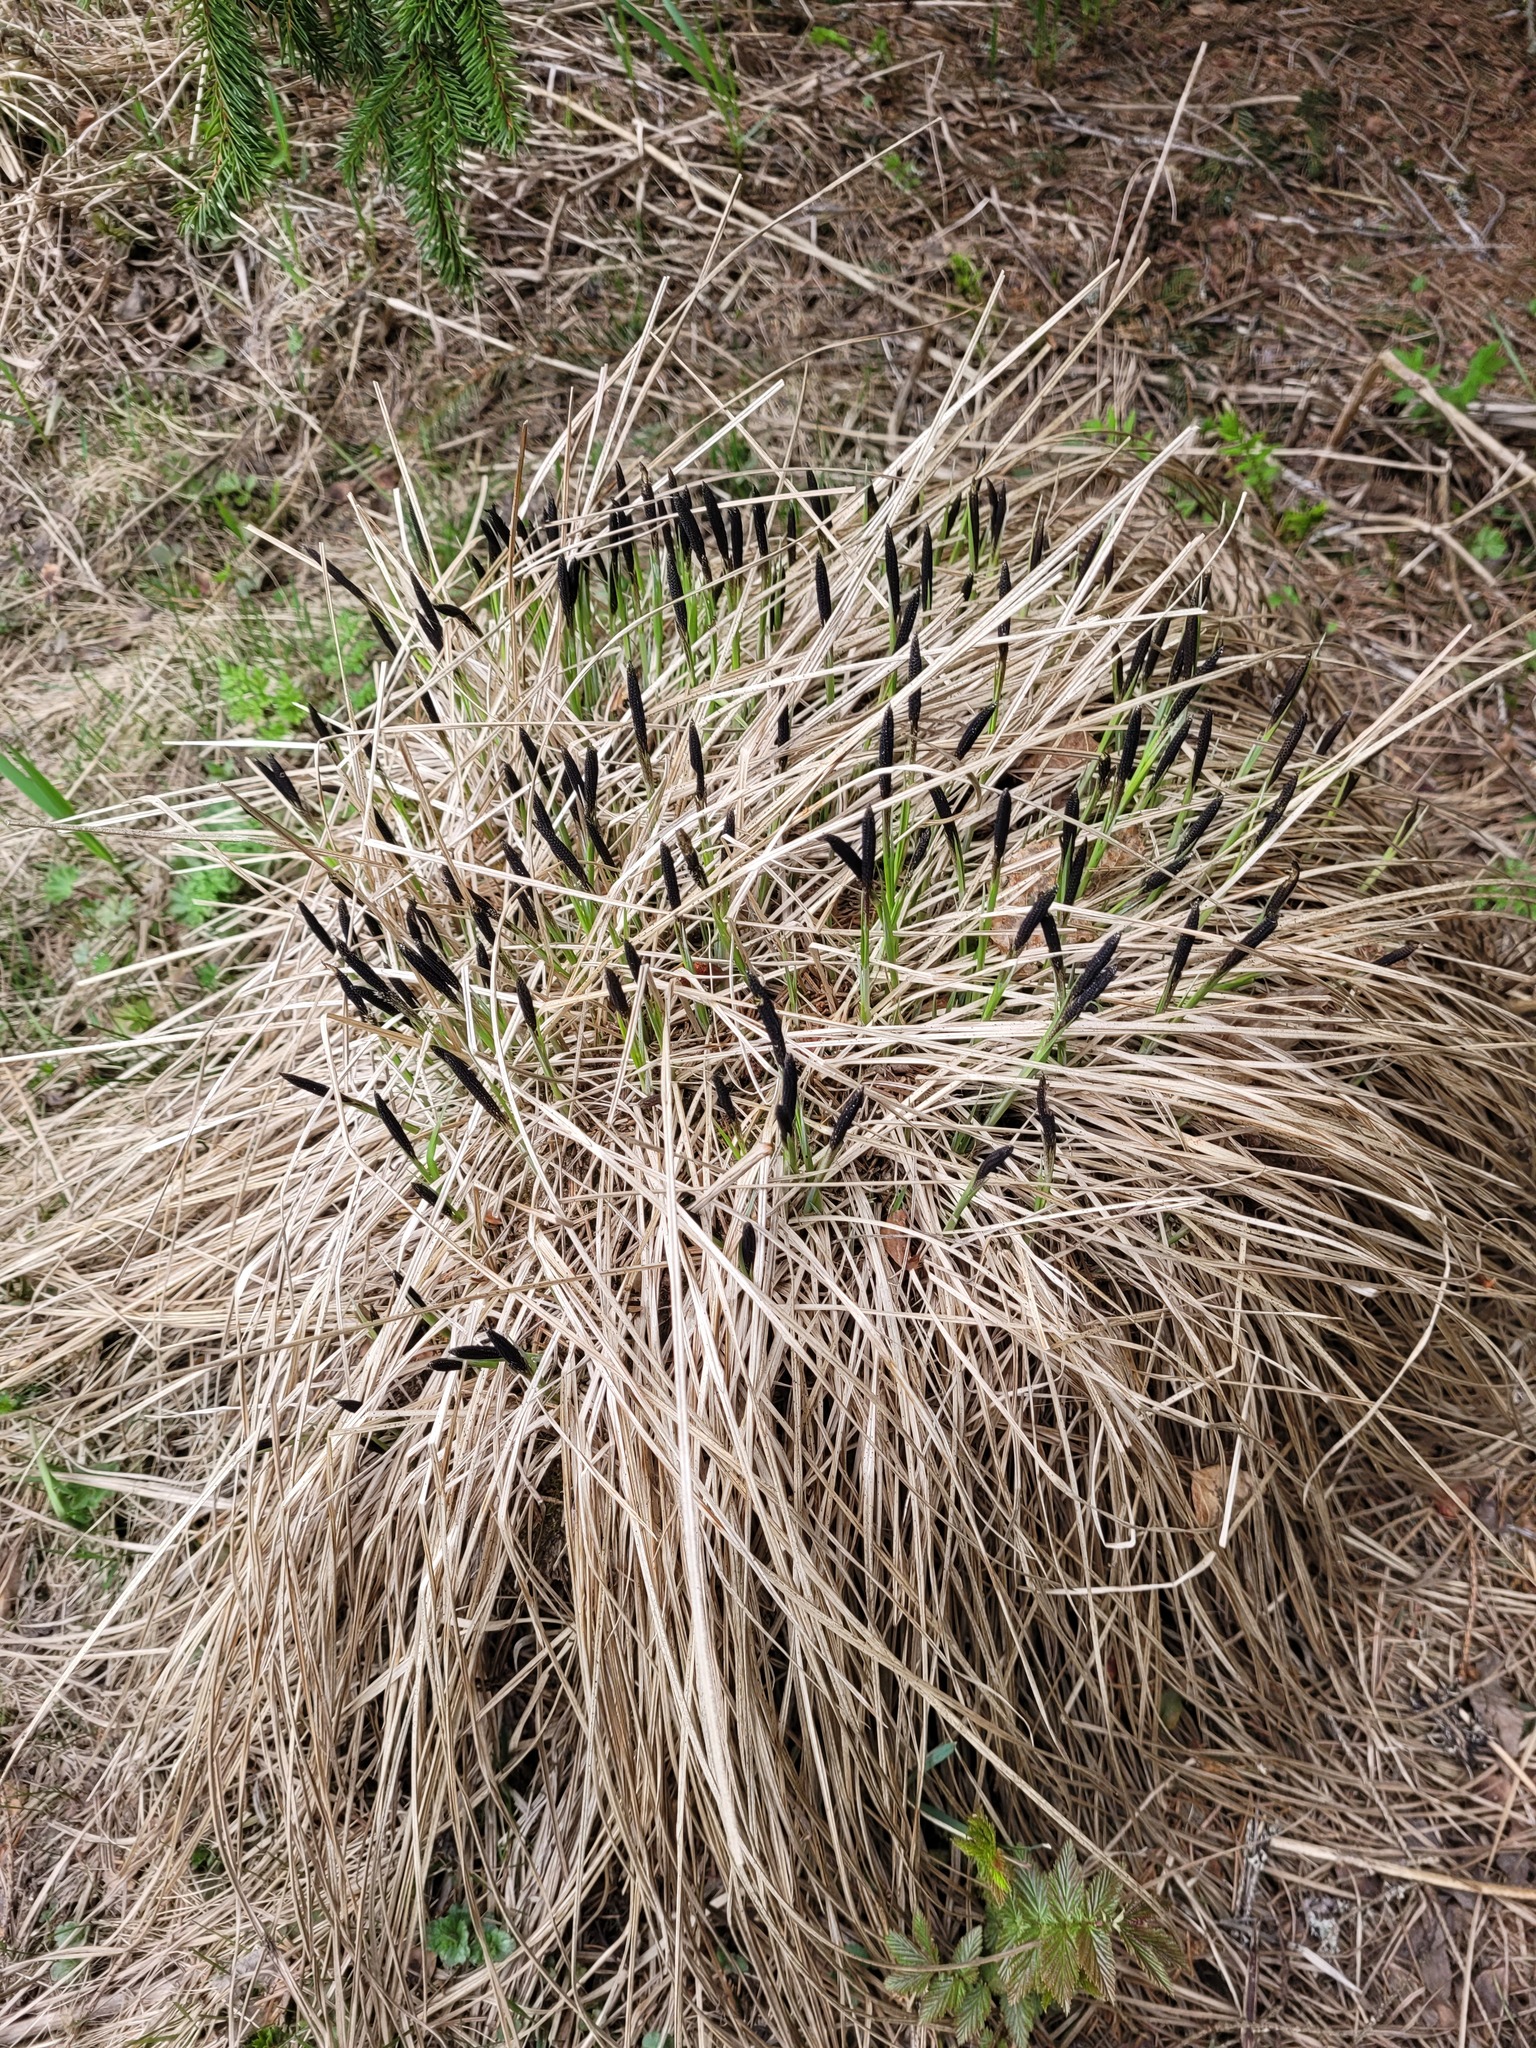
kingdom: Plantae
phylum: Tracheophyta
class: Liliopsida
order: Poales
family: Cyperaceae
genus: Carex
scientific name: Carex cespitosa
